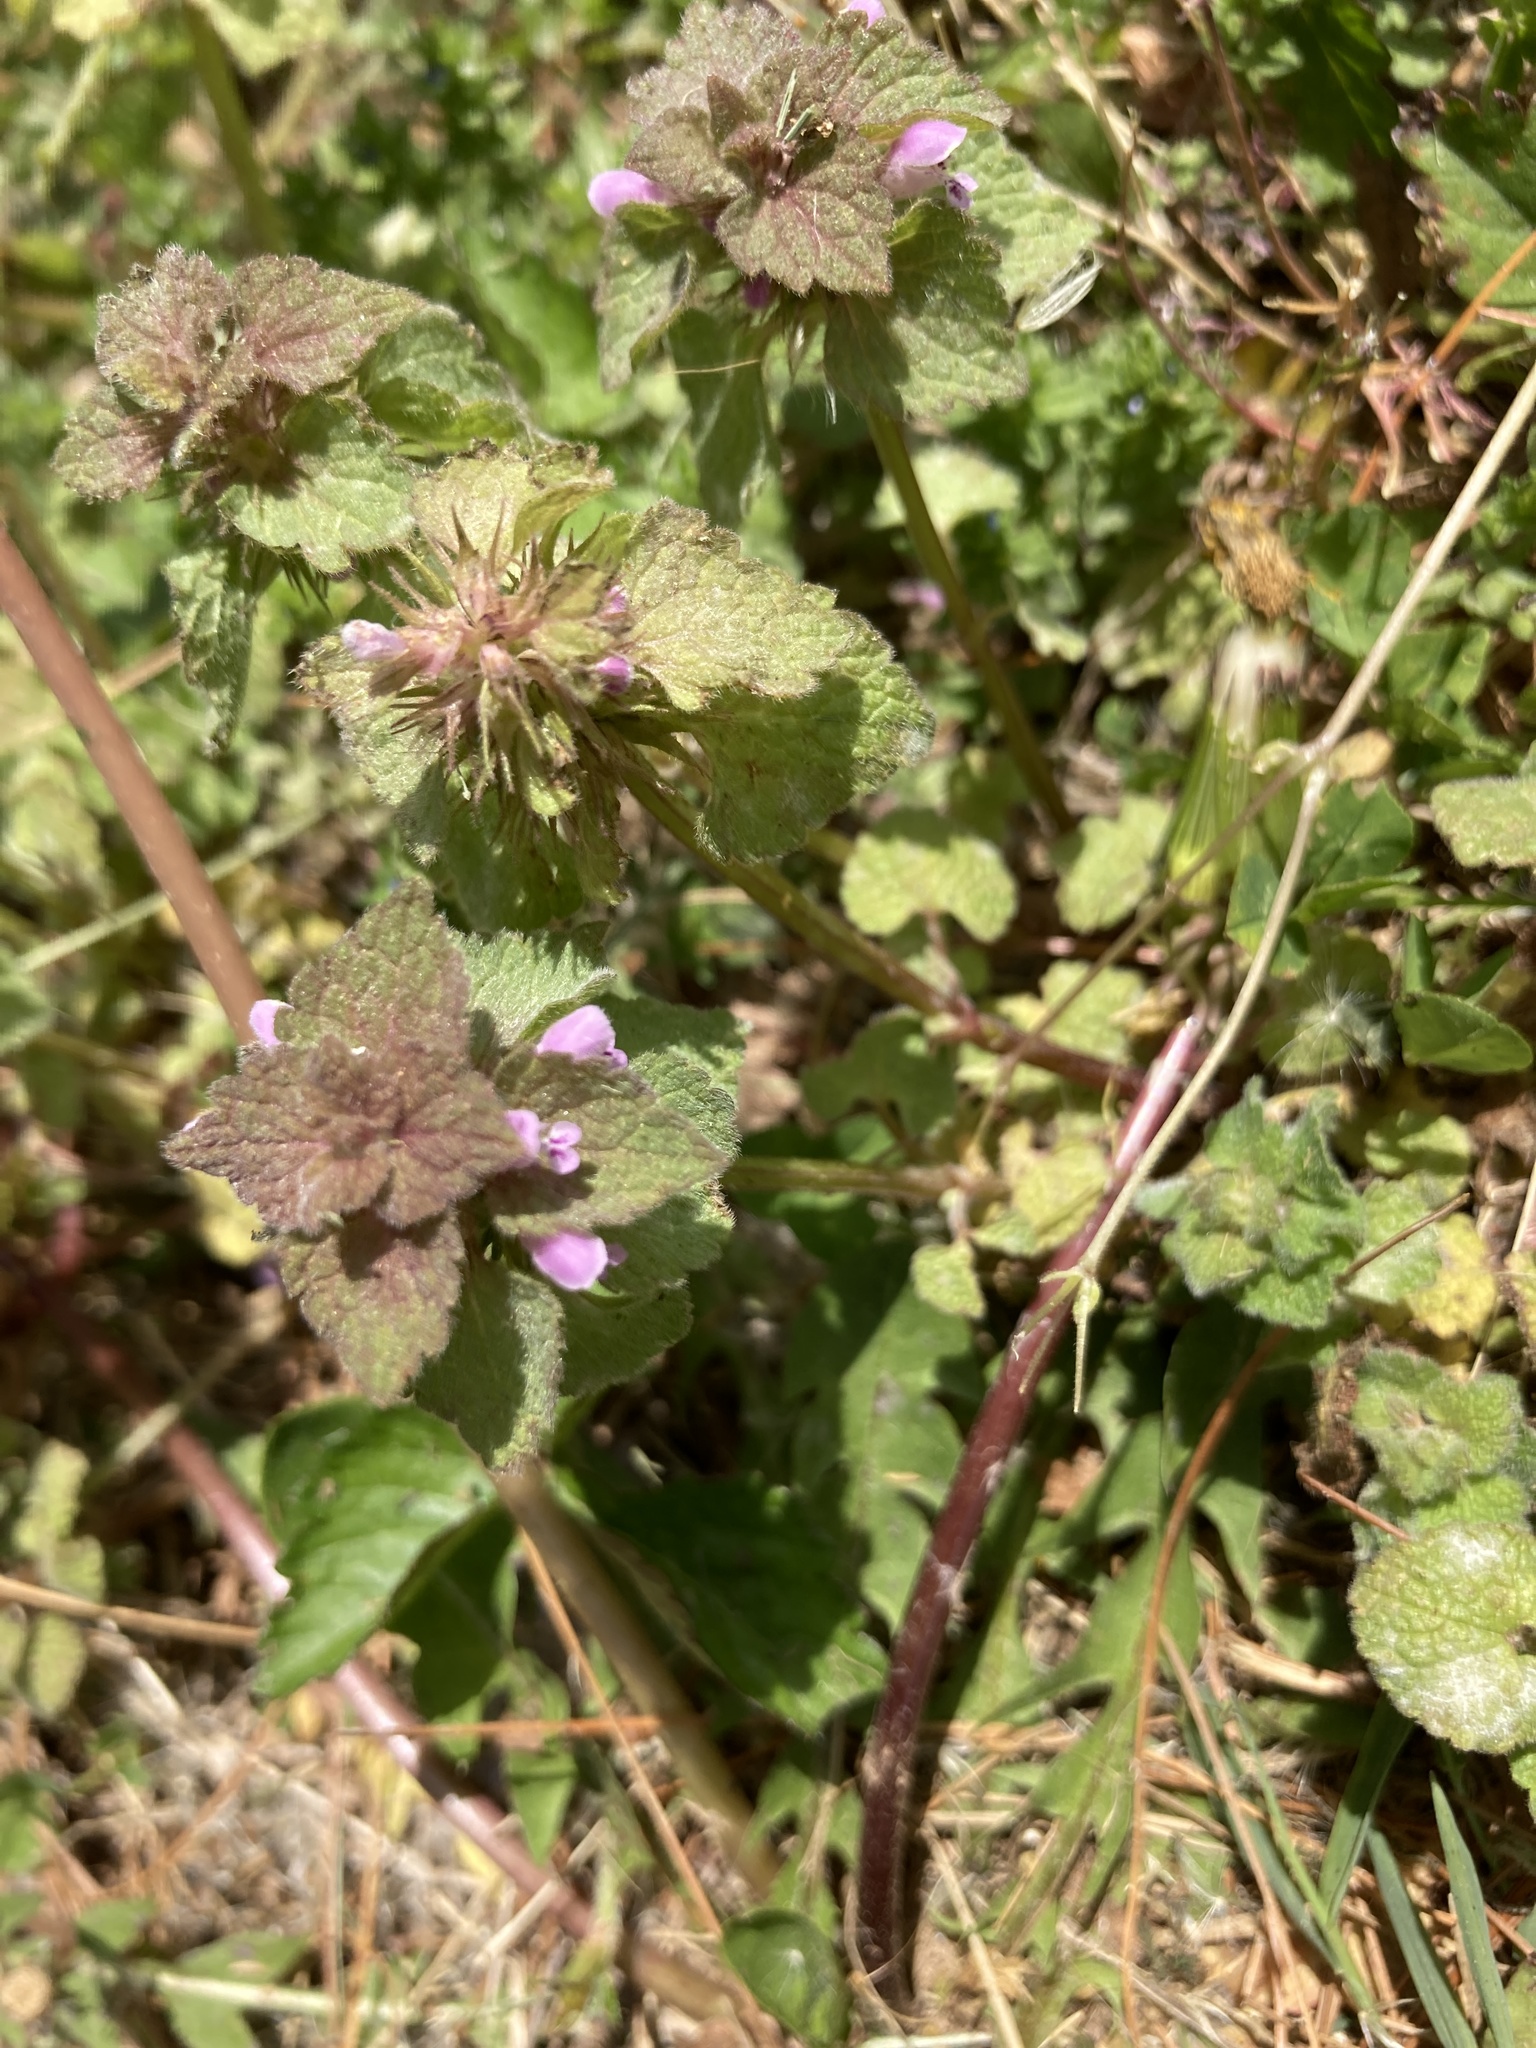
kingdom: Plantae
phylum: Tracheophyta
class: Magnoliopsida
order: Lamiales
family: Lamiaceae
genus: Lamium
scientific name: Lamium purpureum
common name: Red dead-nettle
